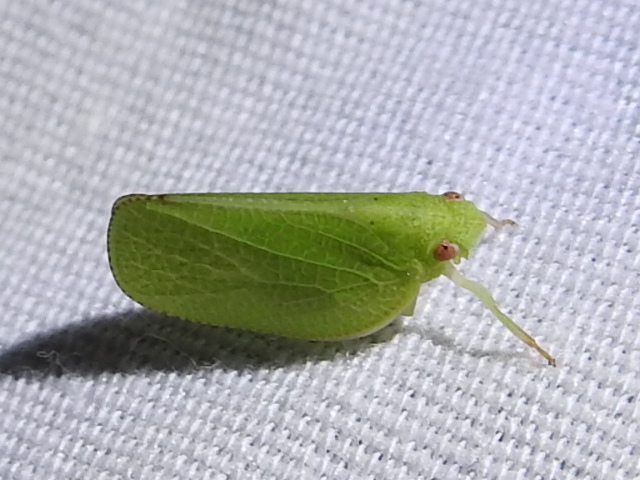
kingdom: Animalia
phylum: Arthropoda
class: Insecta
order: Hemiptera
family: Acanaloniidae
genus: Acanalonia
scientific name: Acanalonia conica
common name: Green cone-headed planthopper
